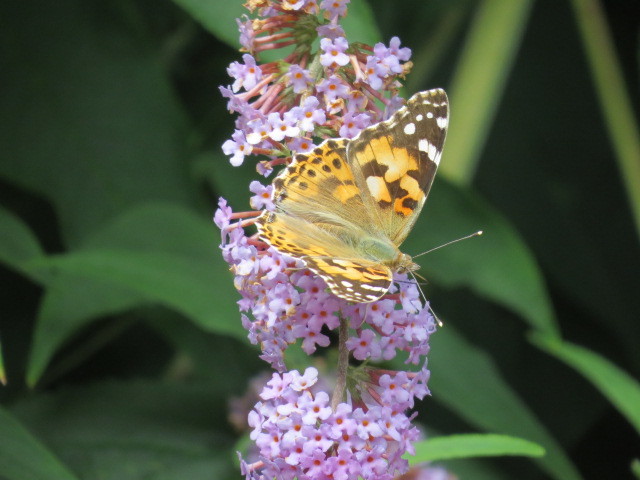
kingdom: Animalia
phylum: Arthropoda
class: Insecta
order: Lepidoptera
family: Nymphalidae
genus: Vanessa
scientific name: Vanessa cardui
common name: Painted lady
